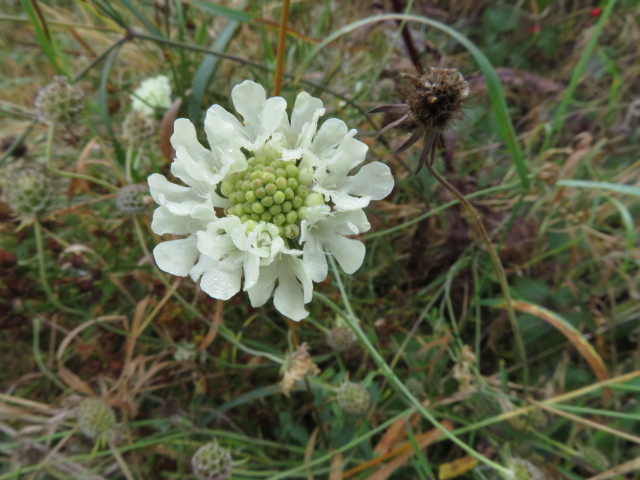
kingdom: Plantae
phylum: Tracheophyta
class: Magnoliopsida
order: Dipsacales
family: Caprifoliaceae
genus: Scabiosa
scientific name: Scabiosa ochroleuca
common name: Cream pincushions
